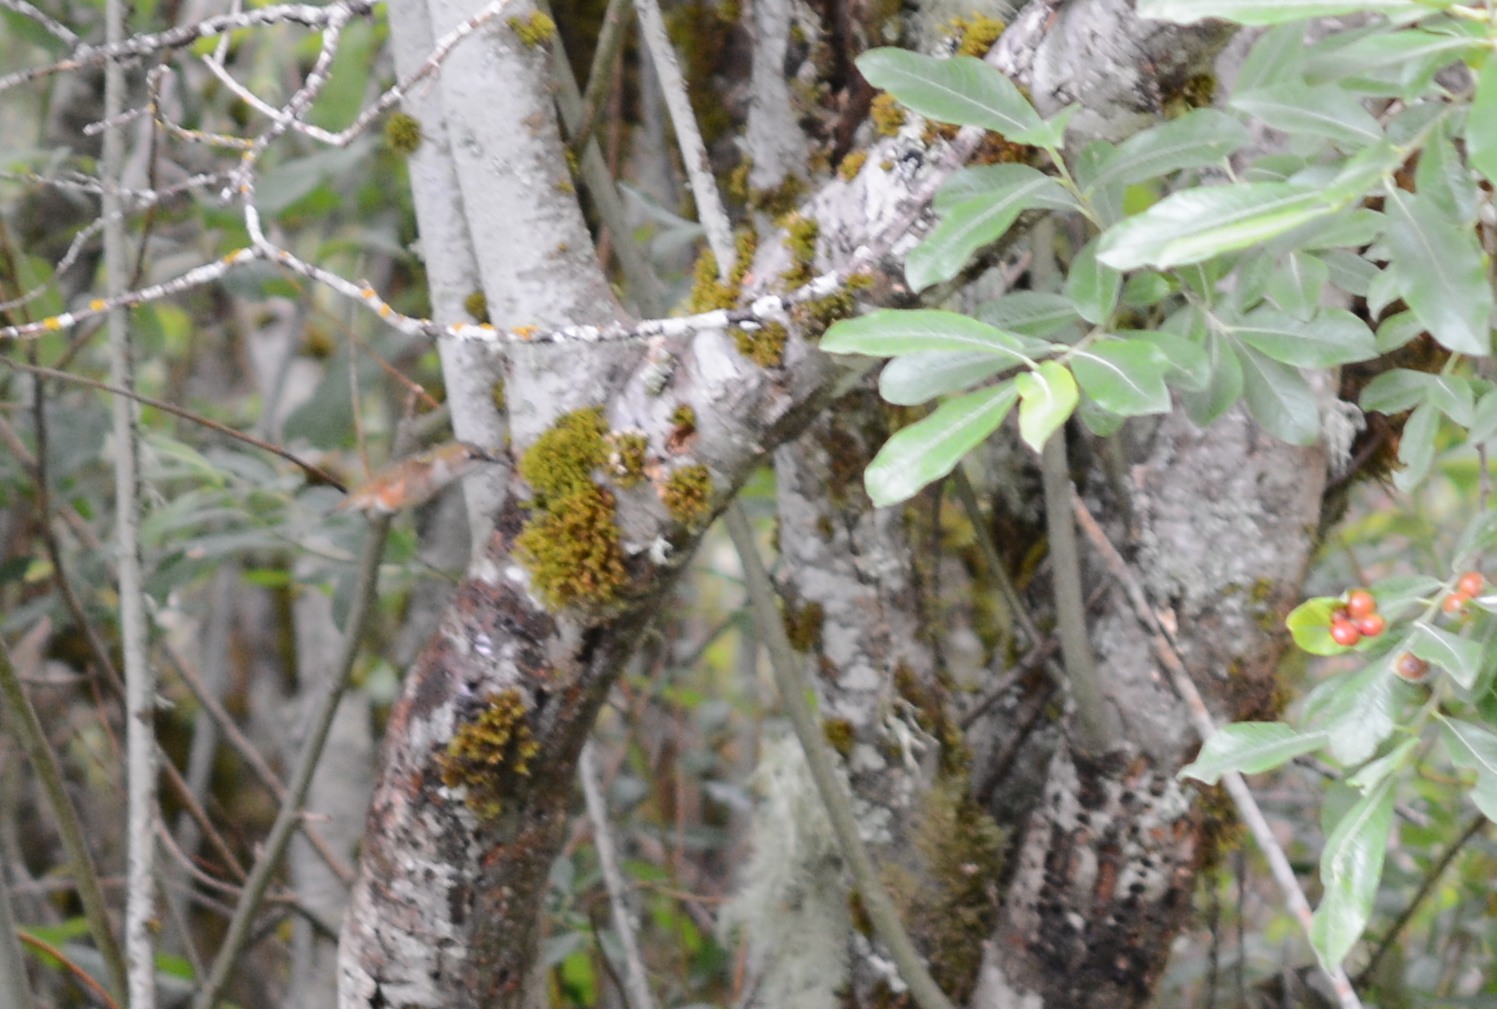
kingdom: Animalia
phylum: Chordata
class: Aves
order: Apodiformes
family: Trochilidae
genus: Selasphorus
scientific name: Selasphorus rufus
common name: Rufous hummingbird
